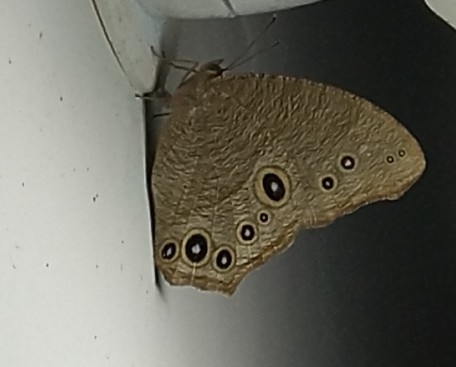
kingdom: Animalia
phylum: Arthropoda
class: Insecta
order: Lepidoptera
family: Nymphalidae
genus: Melanitis
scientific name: Melanitis leda
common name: Twilight brown
